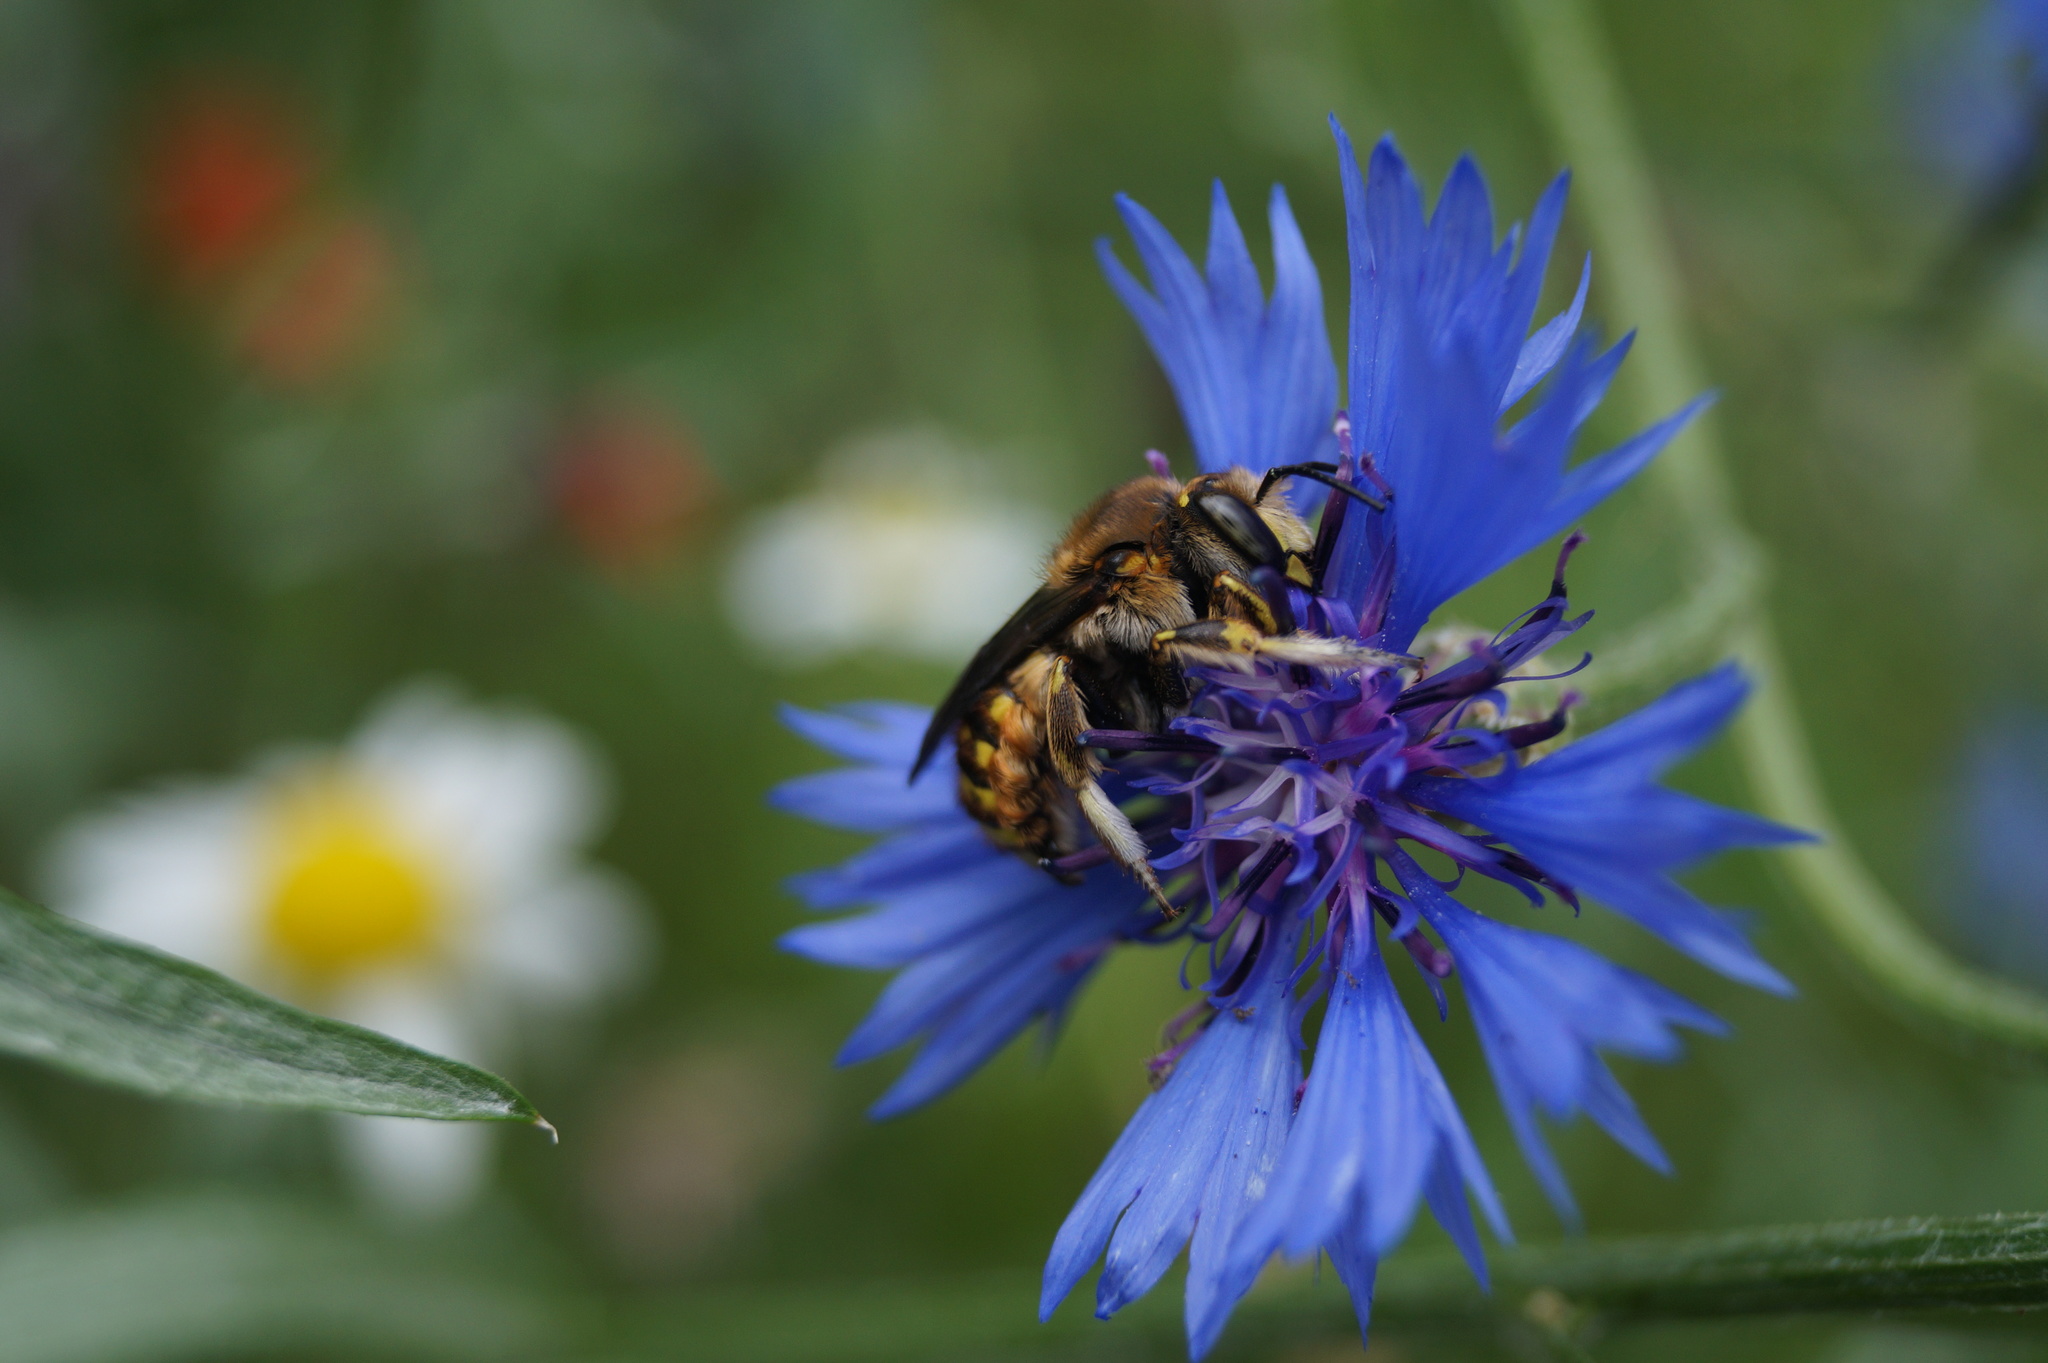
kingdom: Animalia
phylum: Arthropoda
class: Insecta
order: Hymenoptera
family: Megachilidae
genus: Anthidium
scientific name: Anthidium manicatum
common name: Wool carder bee
